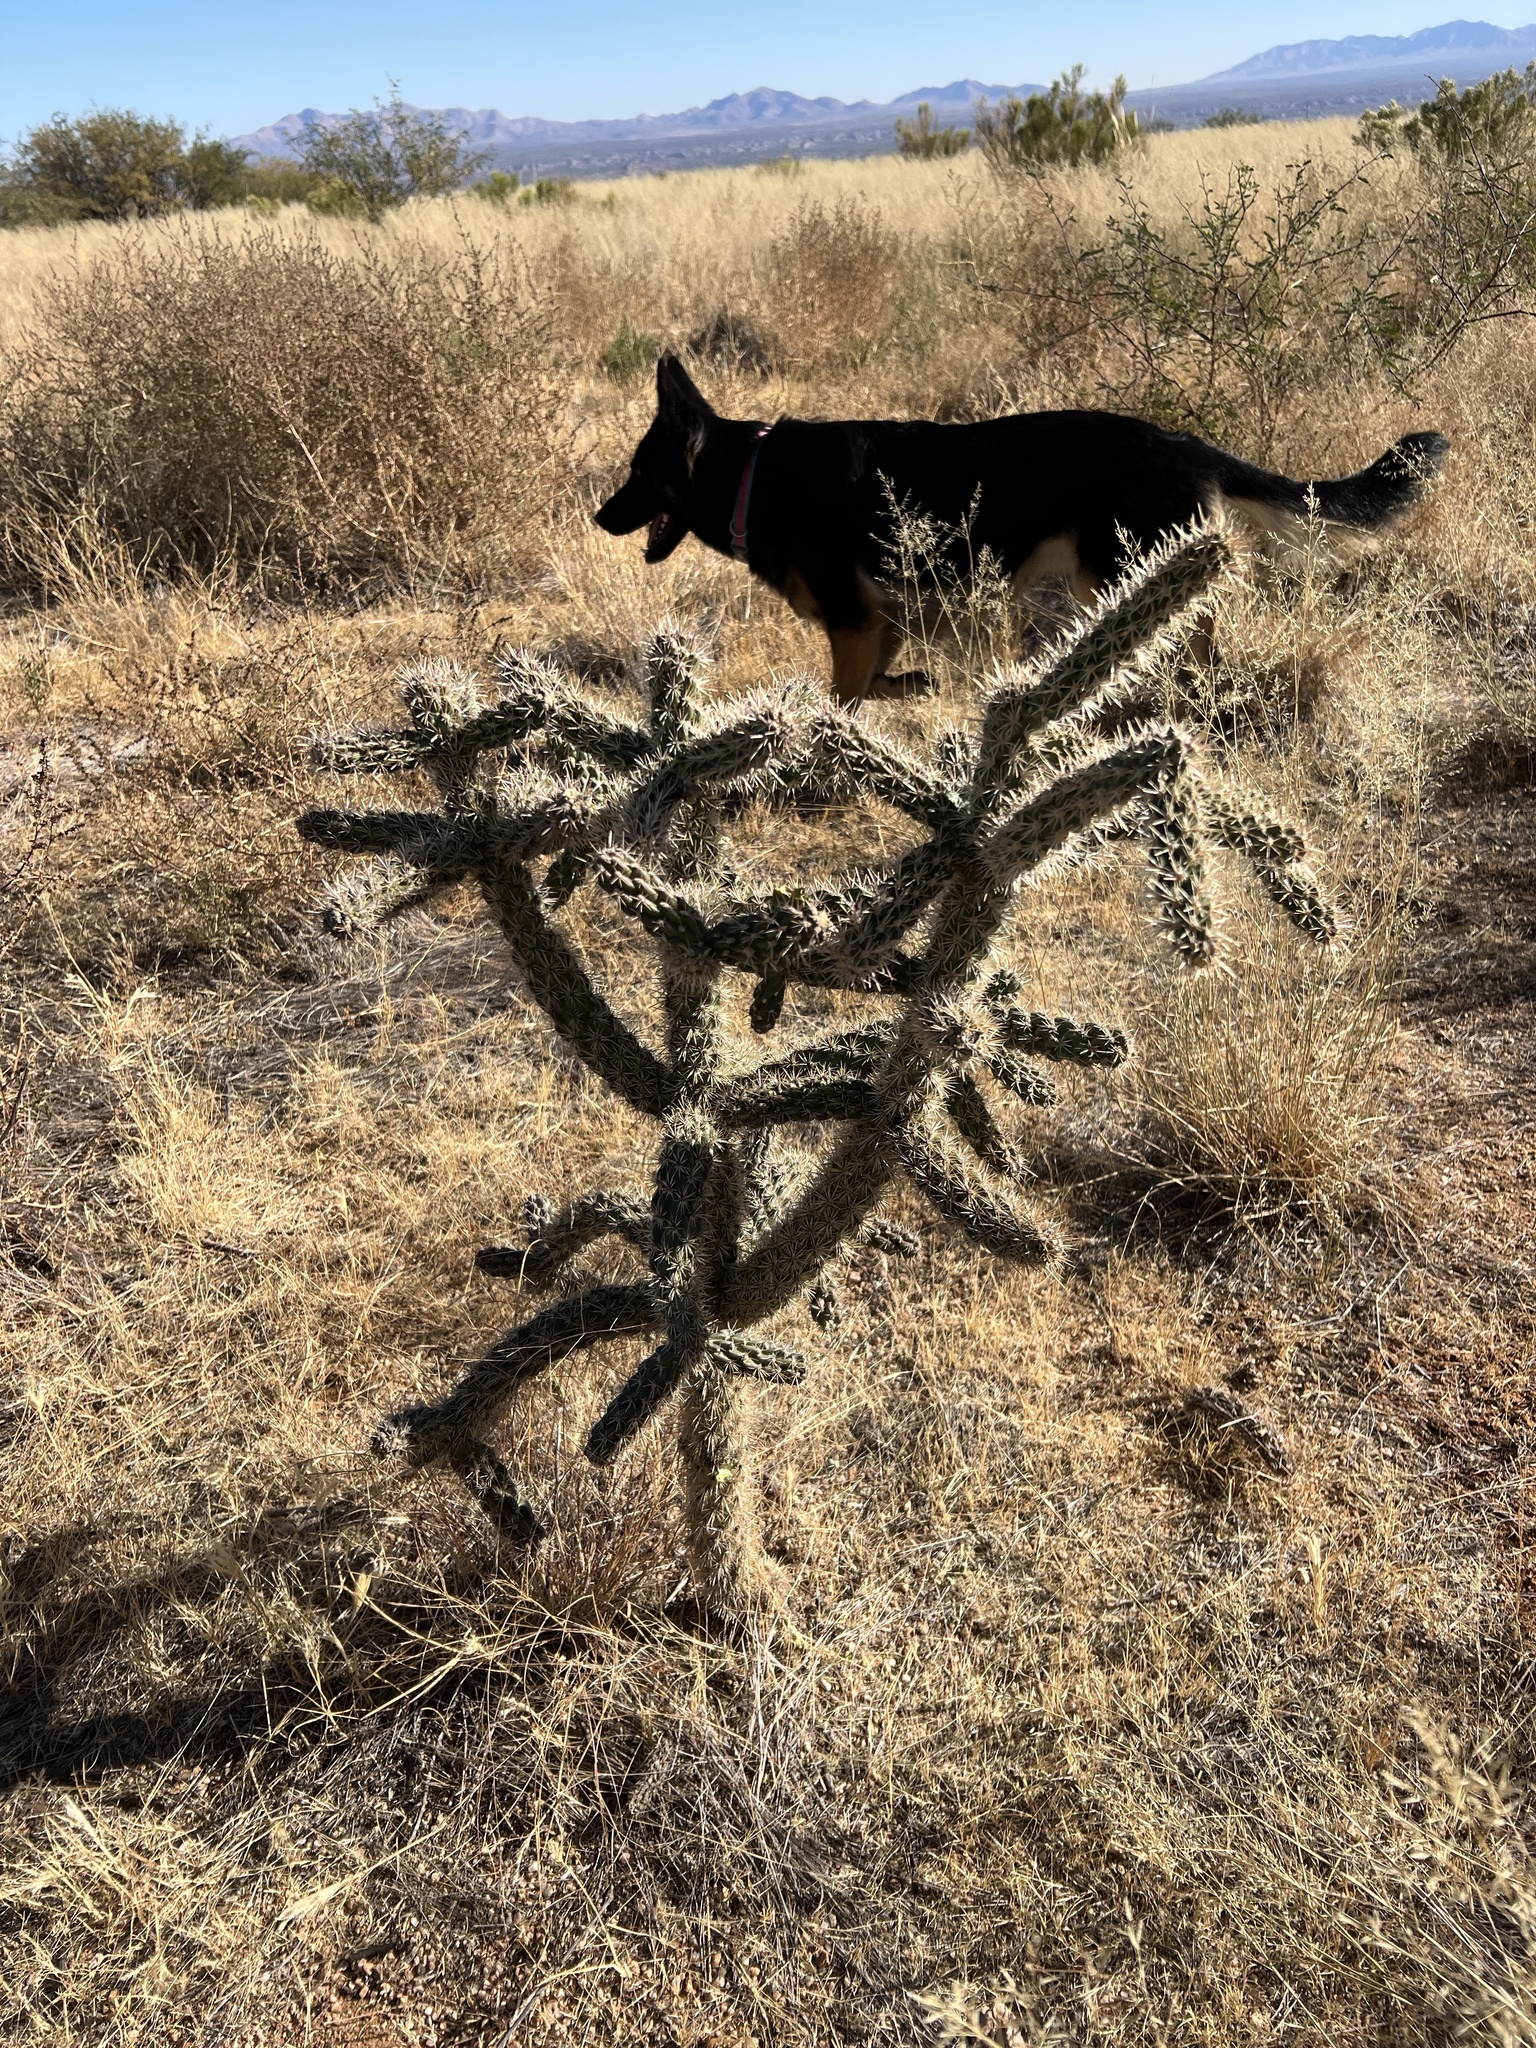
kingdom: Plantae
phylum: Tracheophyta
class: Magnoliopsida
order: Caryophyllales
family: Cactaceae
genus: Cylindropuntia
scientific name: Cylindropuntia imbricata
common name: Candelabrum cactus
